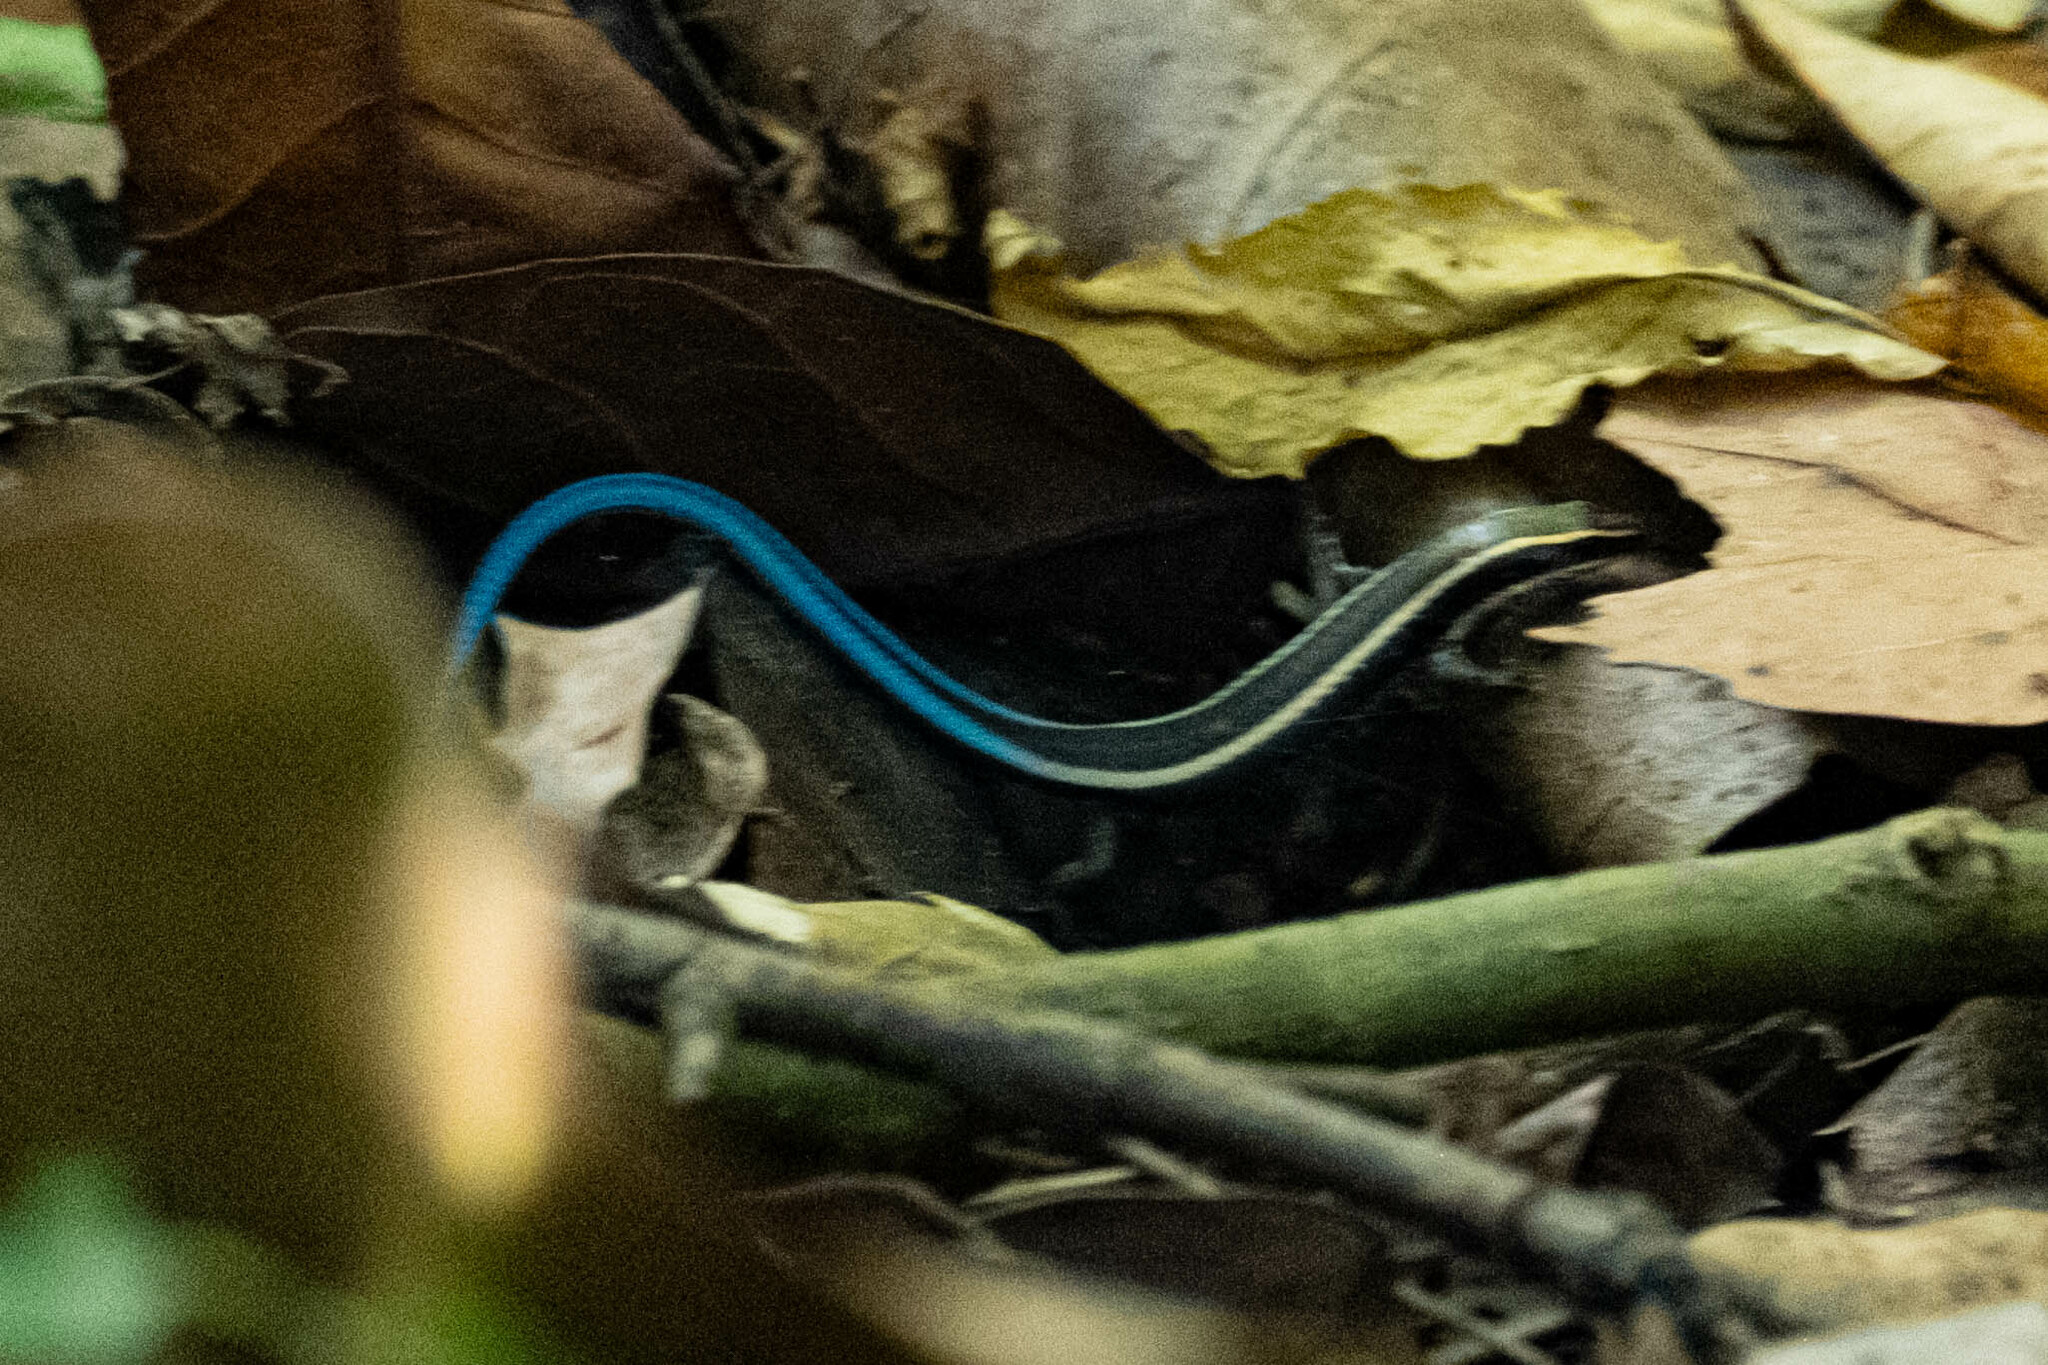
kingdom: Animalia
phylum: Chordata
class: Squamata
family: Gymnophthalmidae
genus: Tretioscincus
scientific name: Tretioscincus bifasciatus
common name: Rio magdalena tegu
